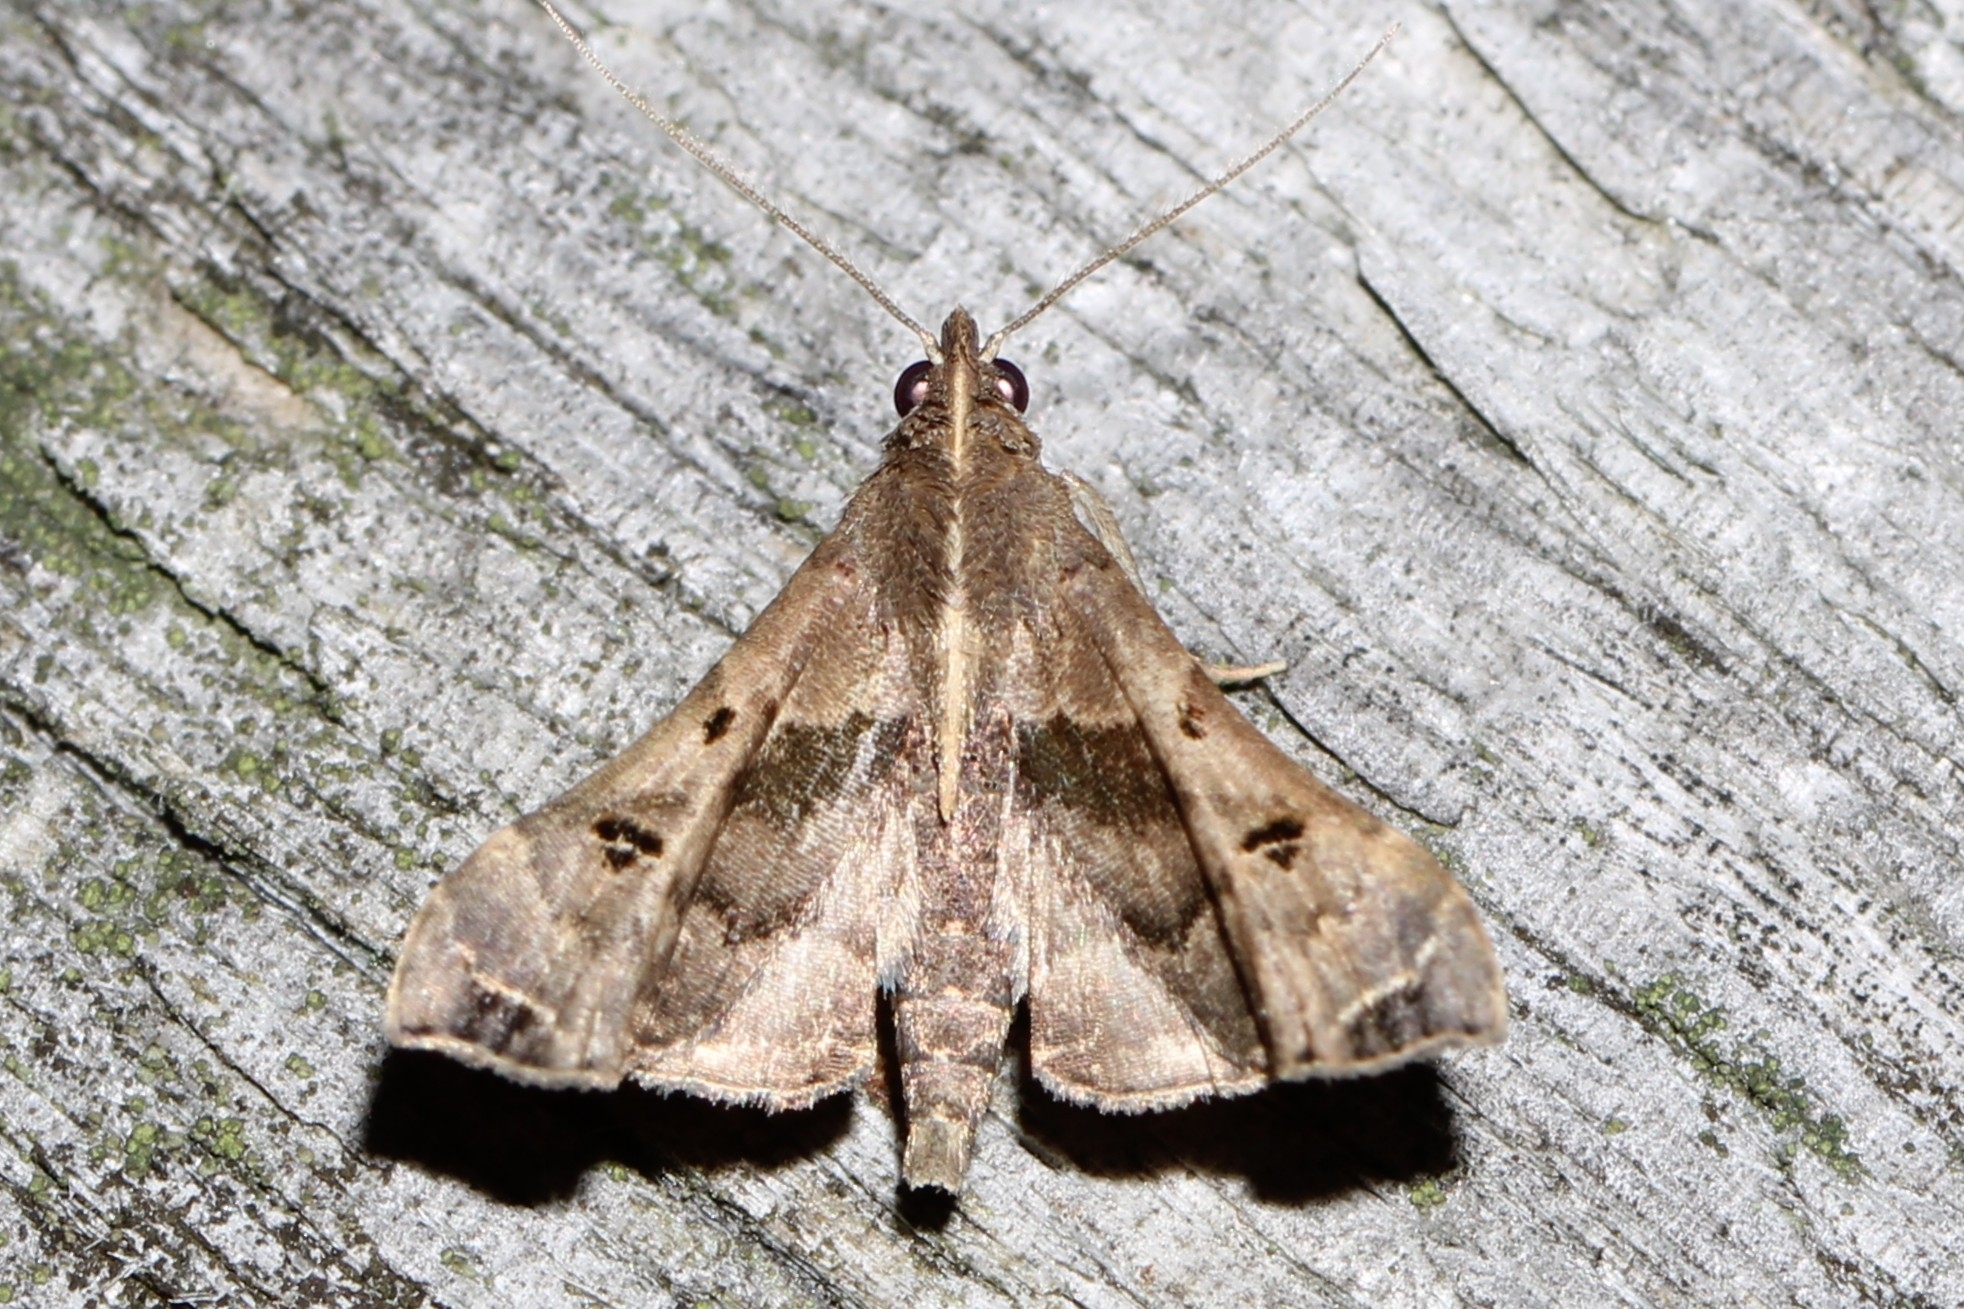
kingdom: Animalia
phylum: Arthropoda
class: Insecta
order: Lepidoptera
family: Erebidae
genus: Palthis
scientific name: Palthis asopialis
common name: Faint-spotted palthis moth
